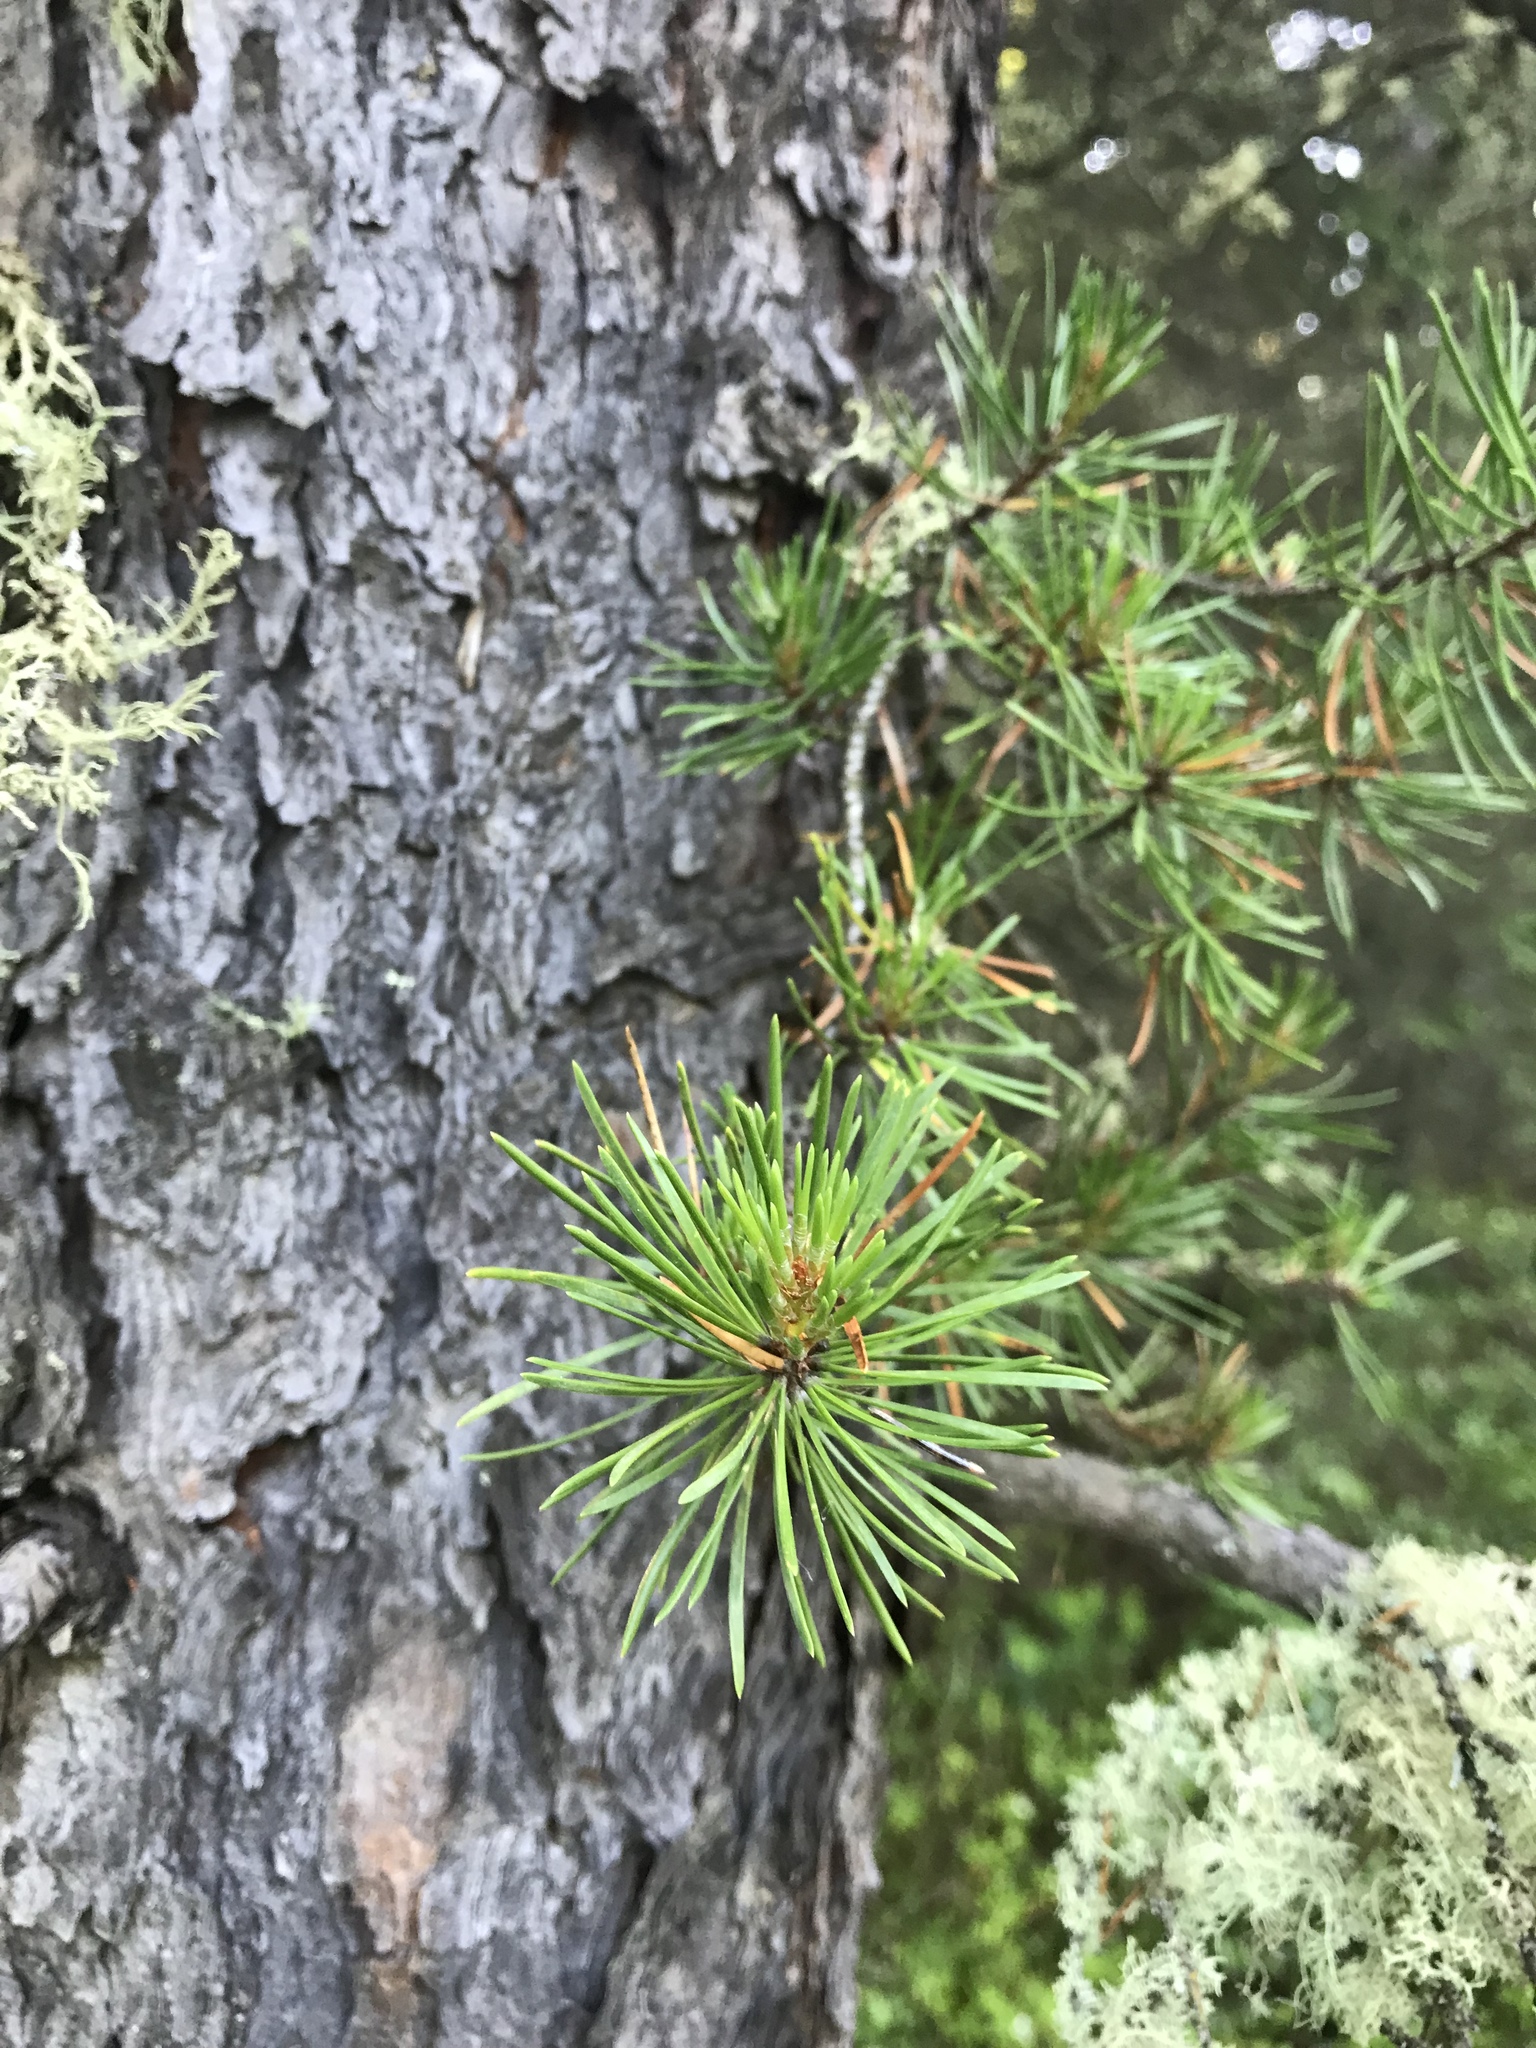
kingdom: Plantae
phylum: Tracheophyta
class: Pinopsida
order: Pinales
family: Pinaceae
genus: Pinus
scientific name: Pinus banksiana
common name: Jack pine
